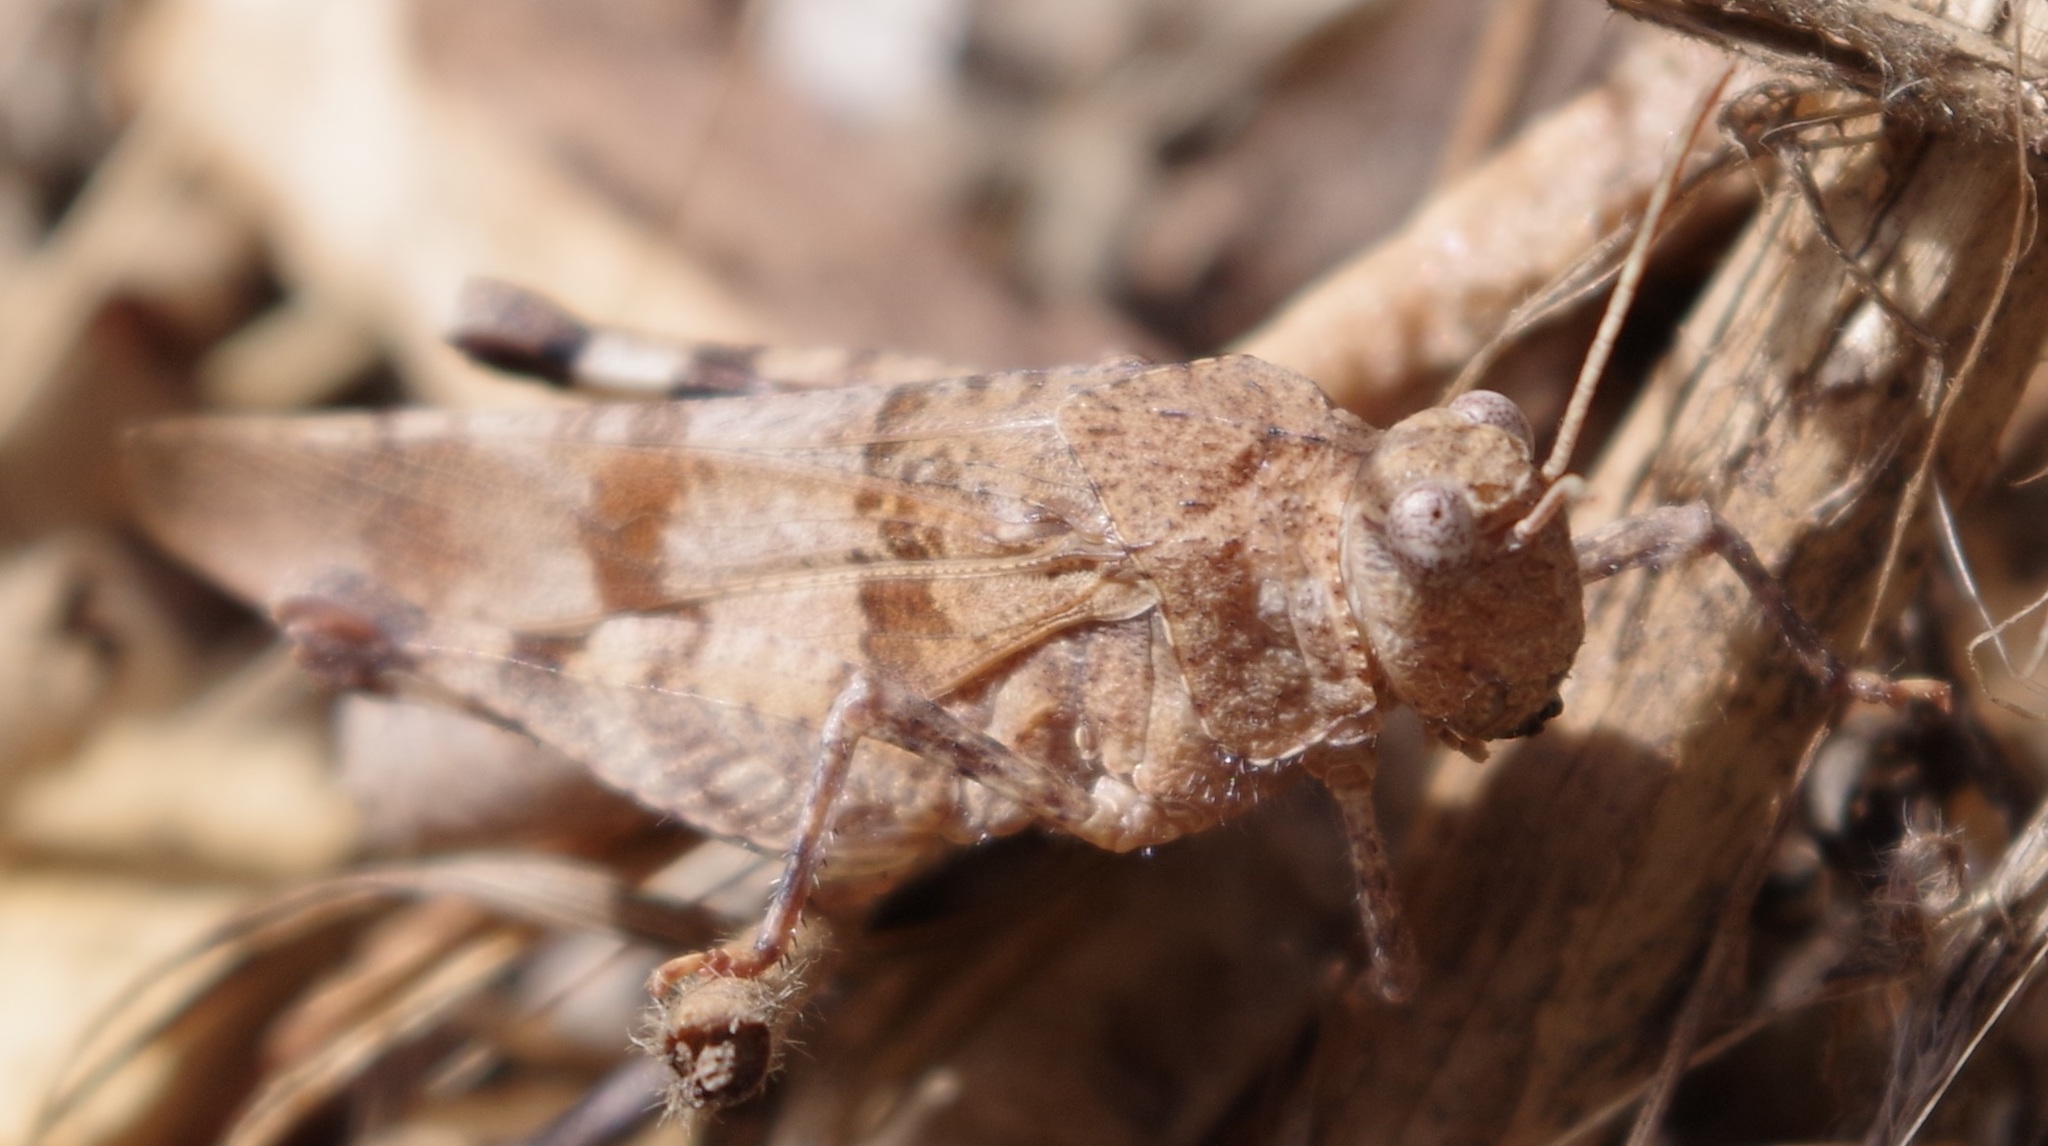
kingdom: Animalia
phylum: Arthropoda
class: Insecta
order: Orthoptera
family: Acrididae
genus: Oedipoda
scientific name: Oedipoda caerulescens
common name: Blue-winged grasshopper
